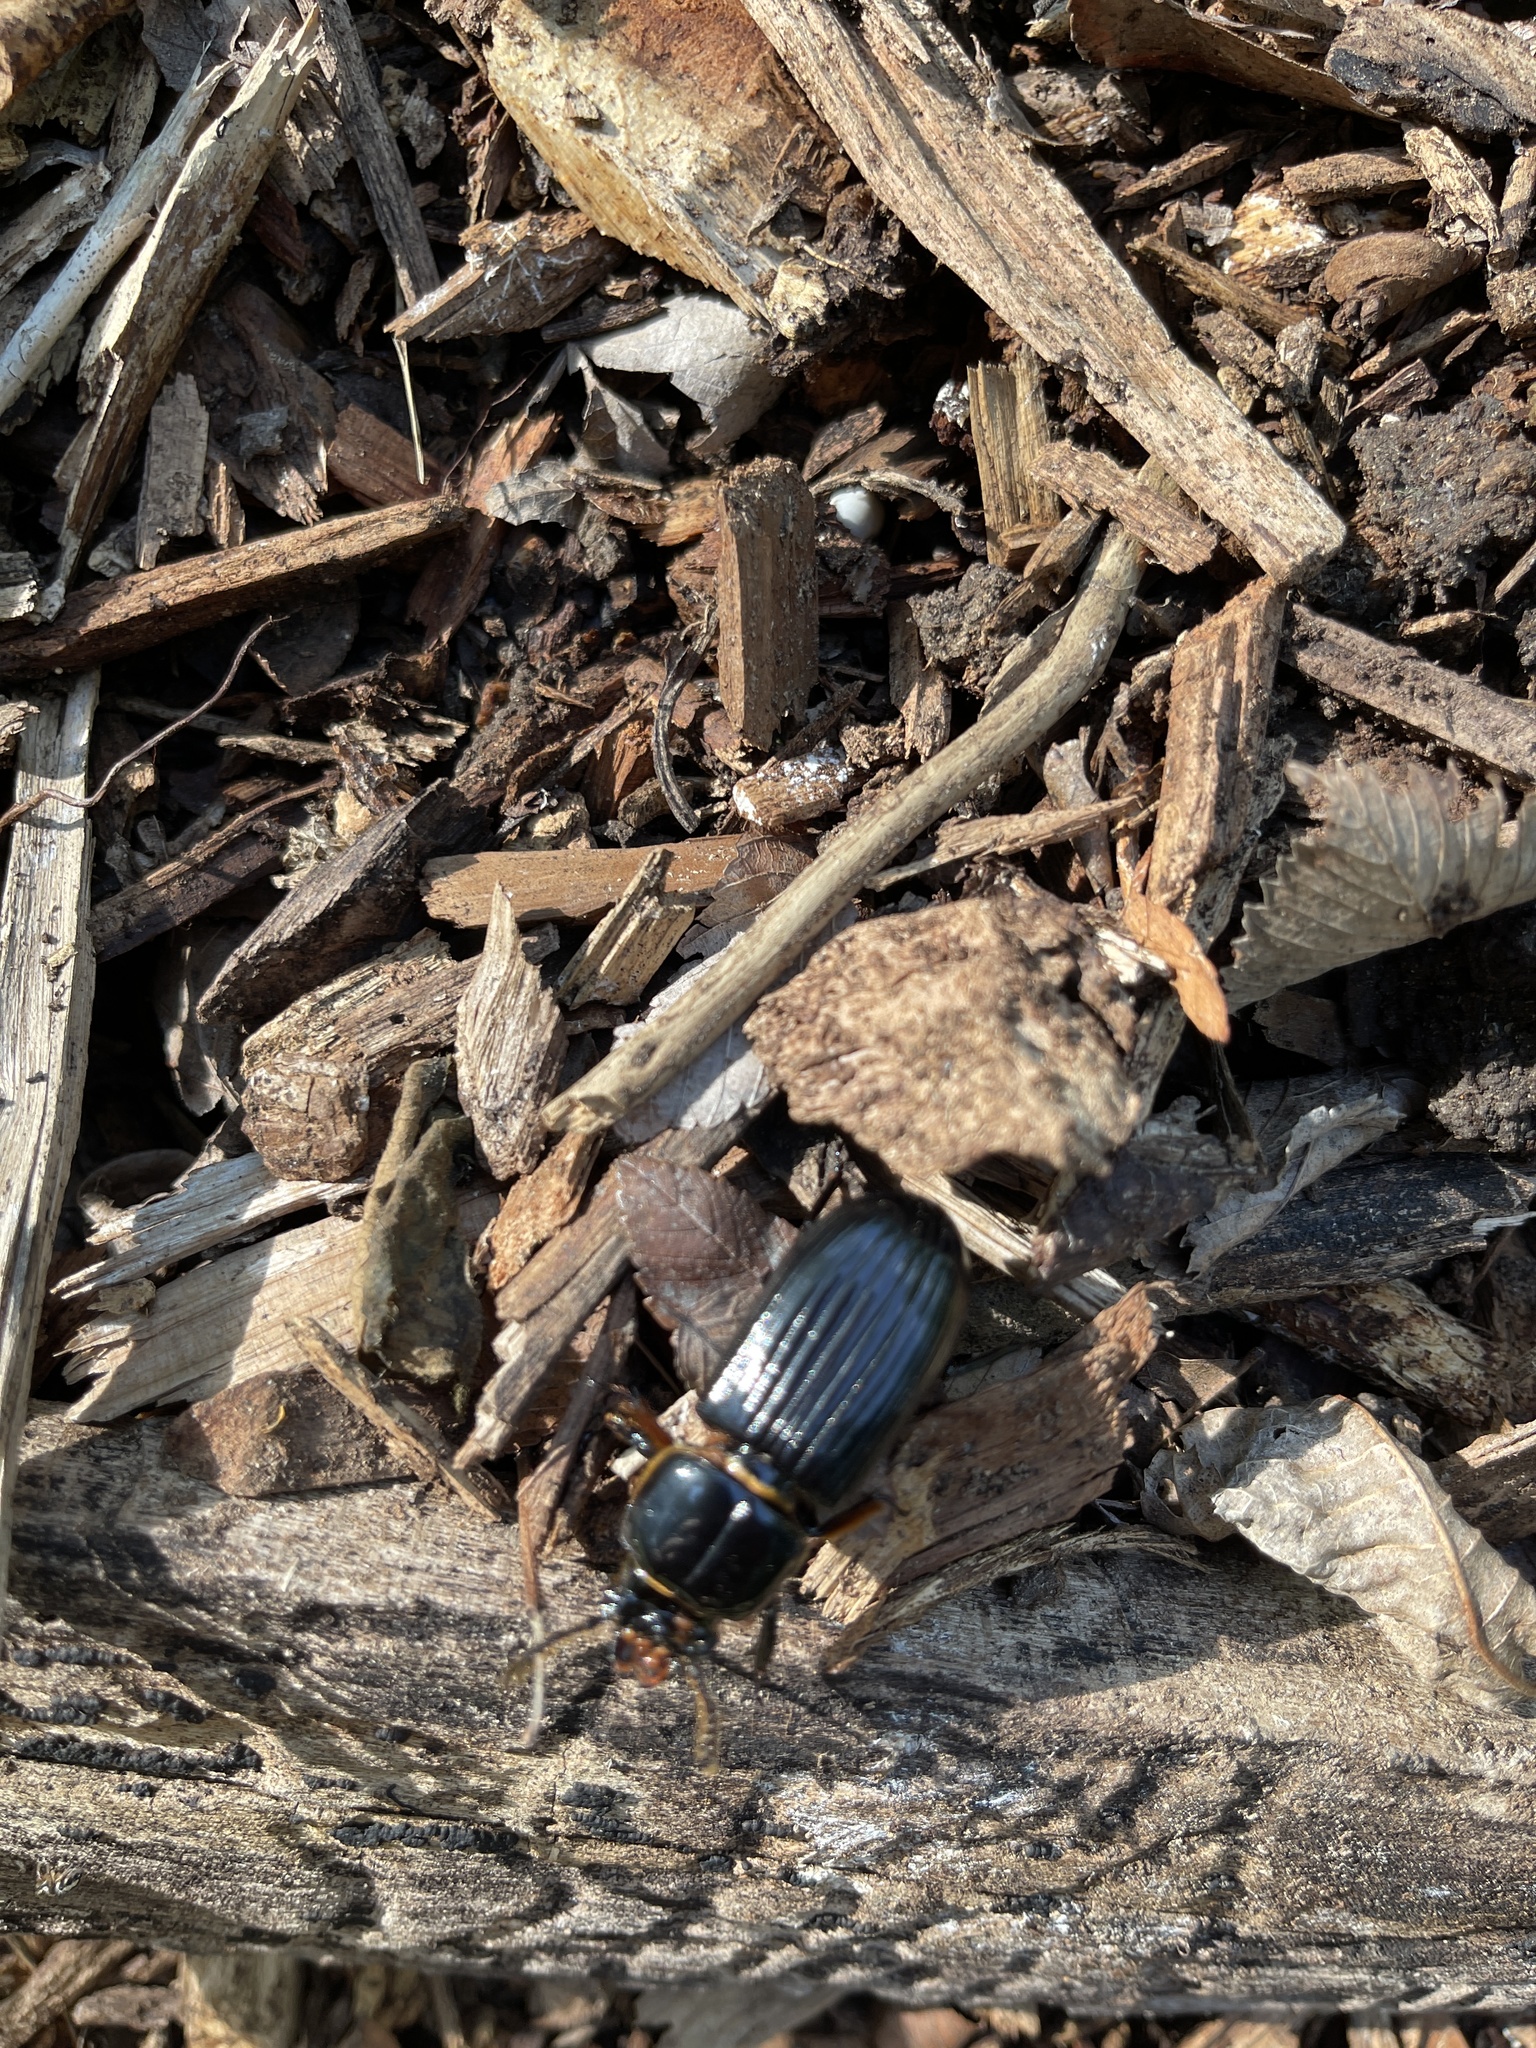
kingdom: Animalia
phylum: Arthropoda
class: Insecta
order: Coleoptera
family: Passalidae
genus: Odontotaenius
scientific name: Odontotaenius disjunctus
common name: Patent leather beetle
